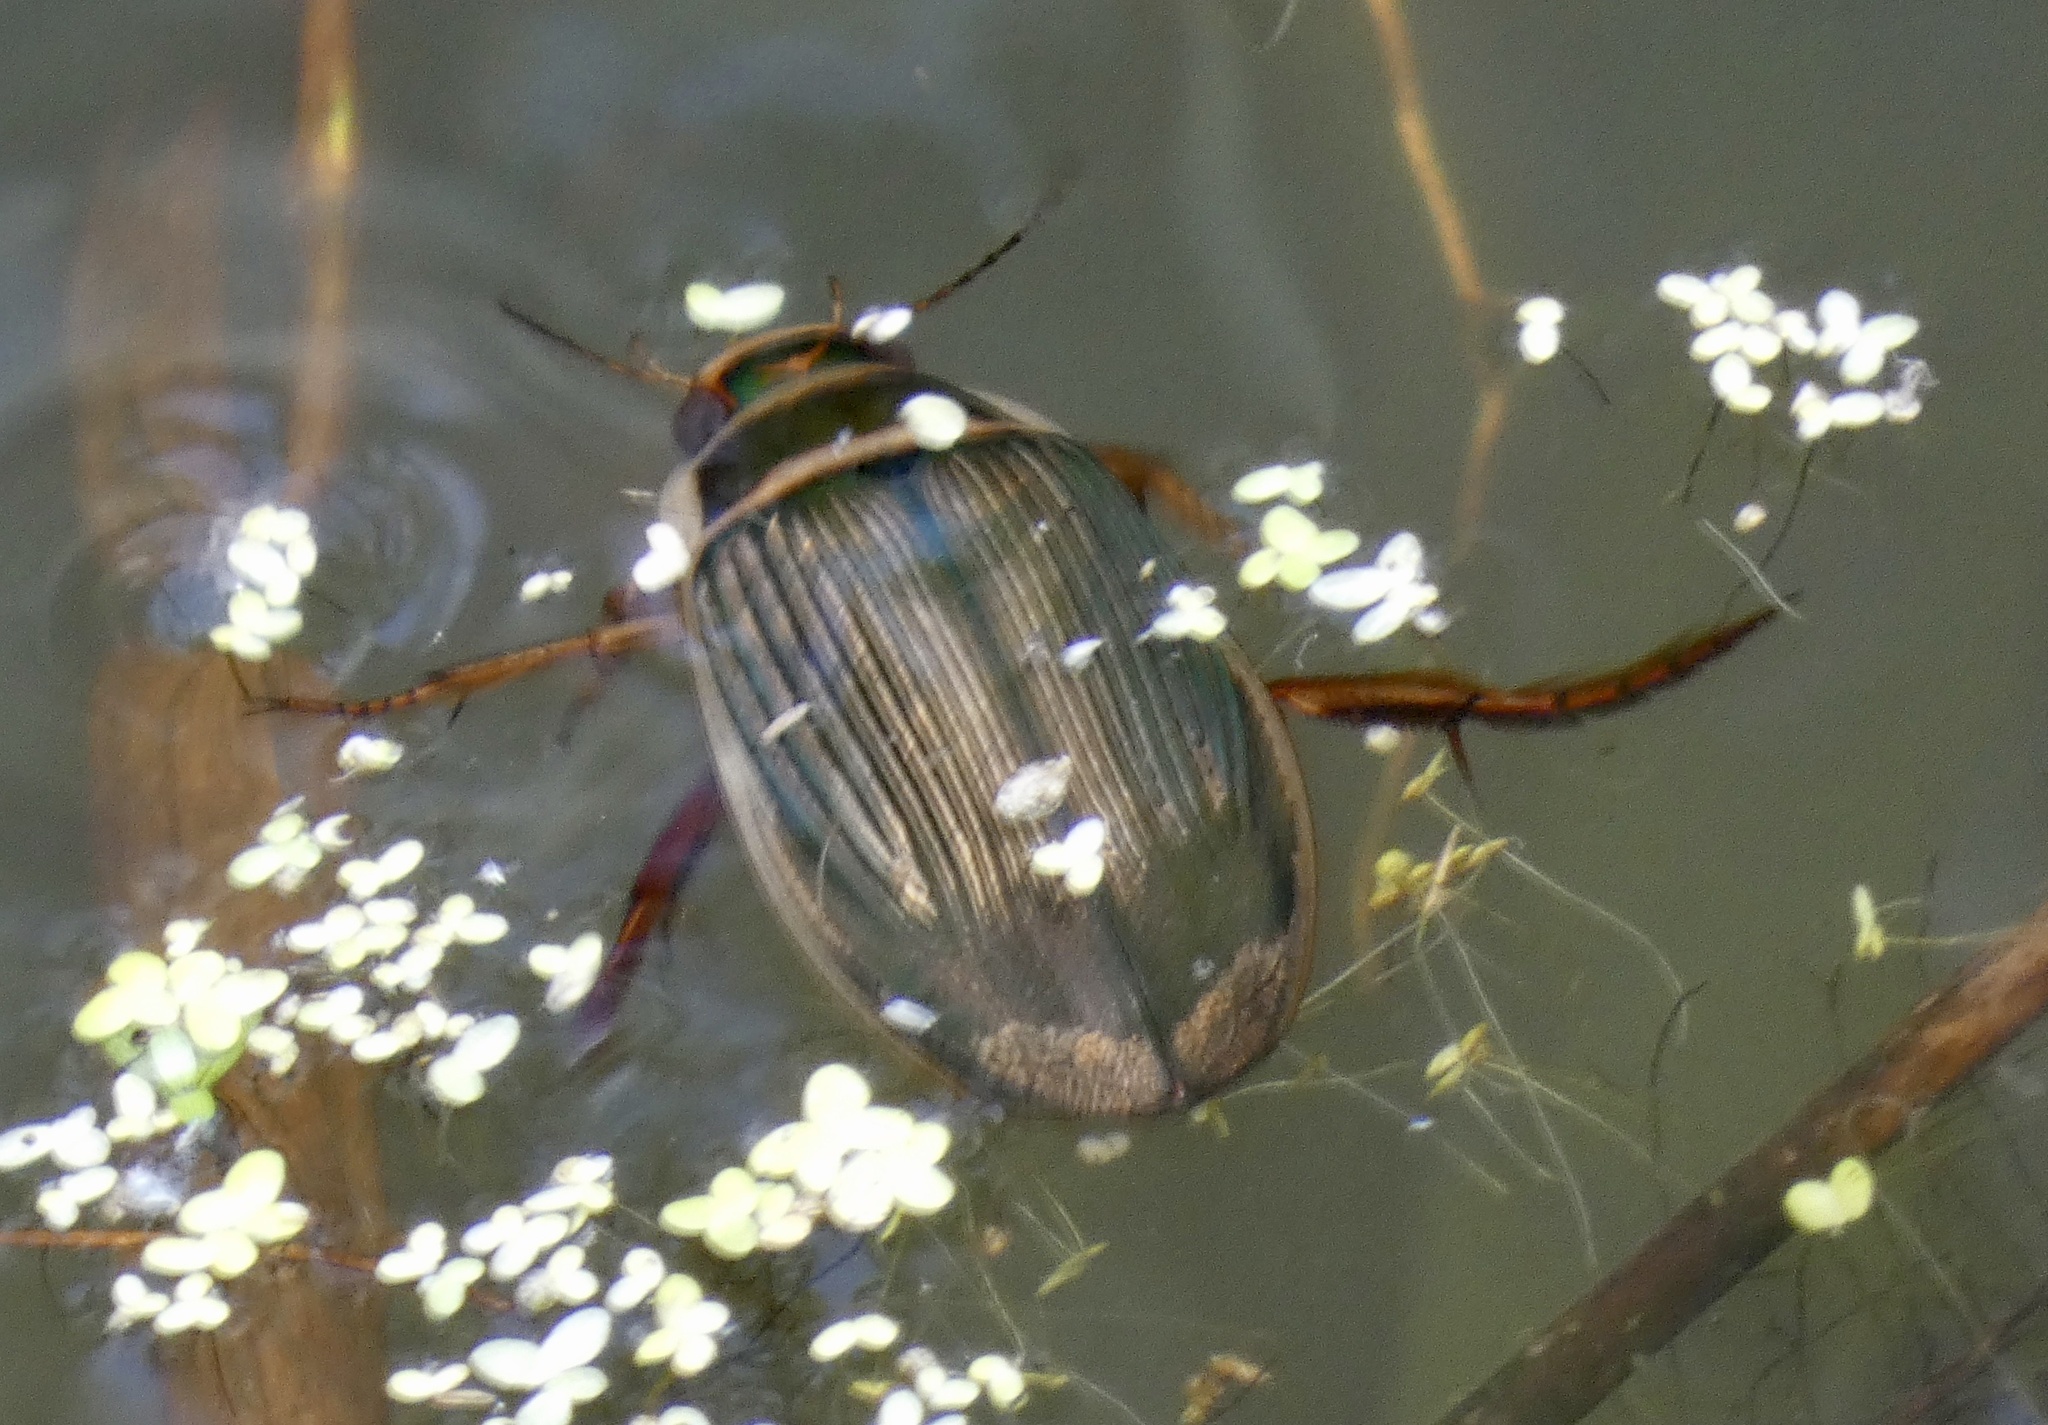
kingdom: Animalia
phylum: Arthropoda
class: Insecta
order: Coleoptera
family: Dytiscidae
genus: Dytiscus
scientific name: Dytiscus marginalis
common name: Great water beetle
